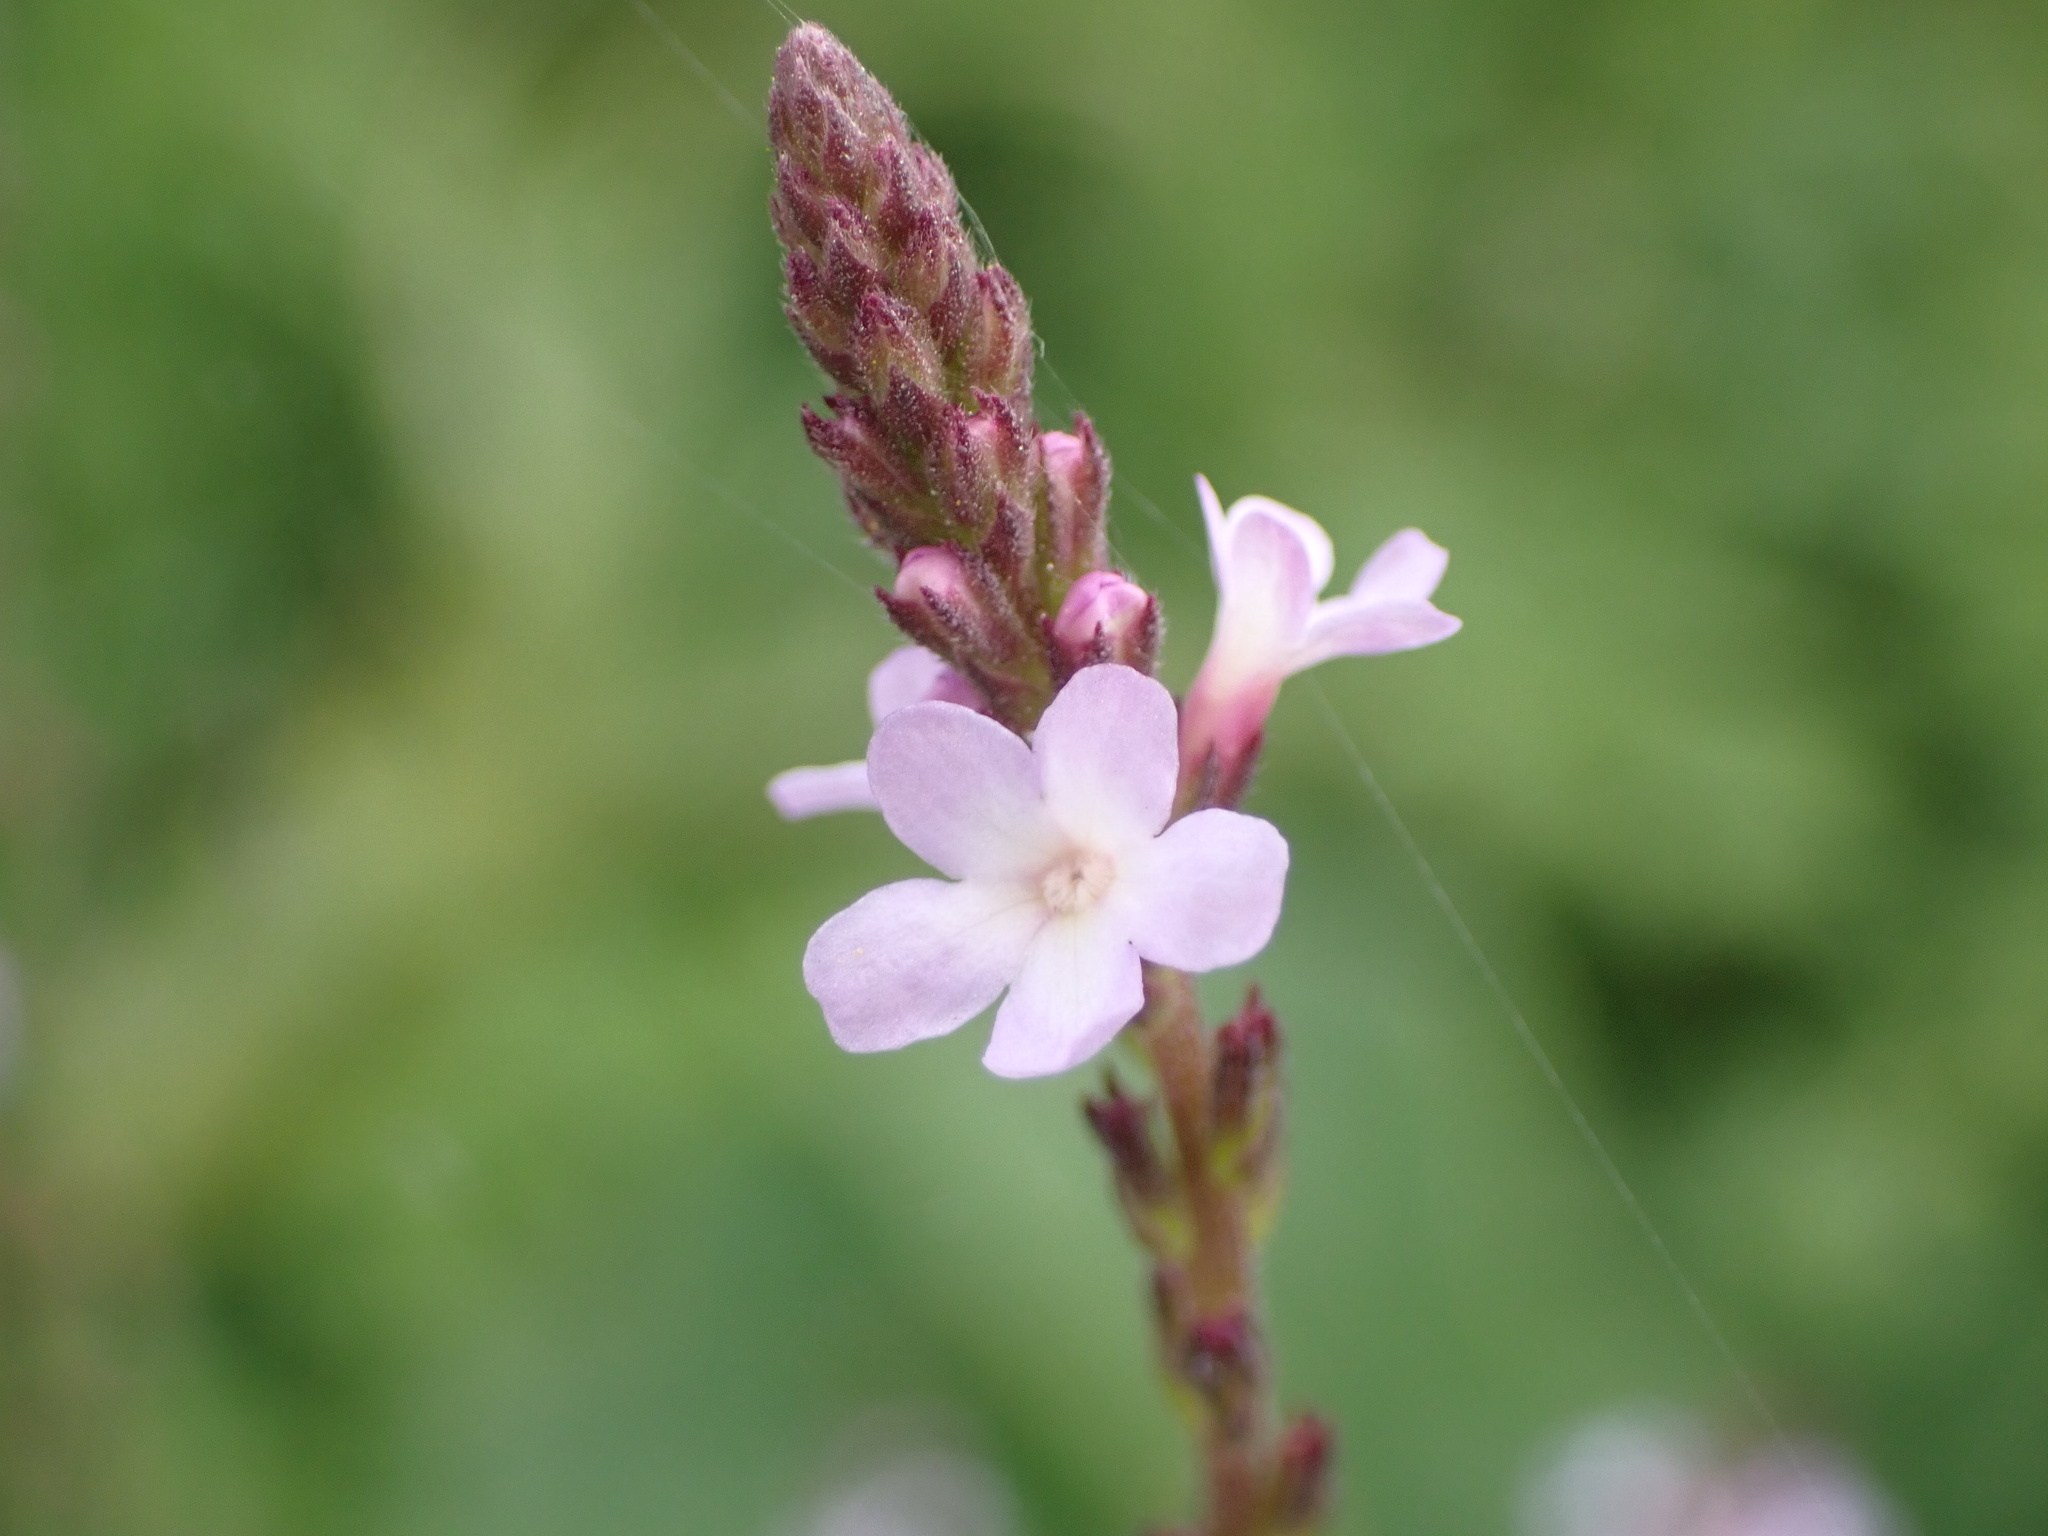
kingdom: Plantae
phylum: Tracheophyta
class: Magnoliopsida
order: Lamiales
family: Verbenaceae
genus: Verbena
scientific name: Verbena officinalis
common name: Vervain
